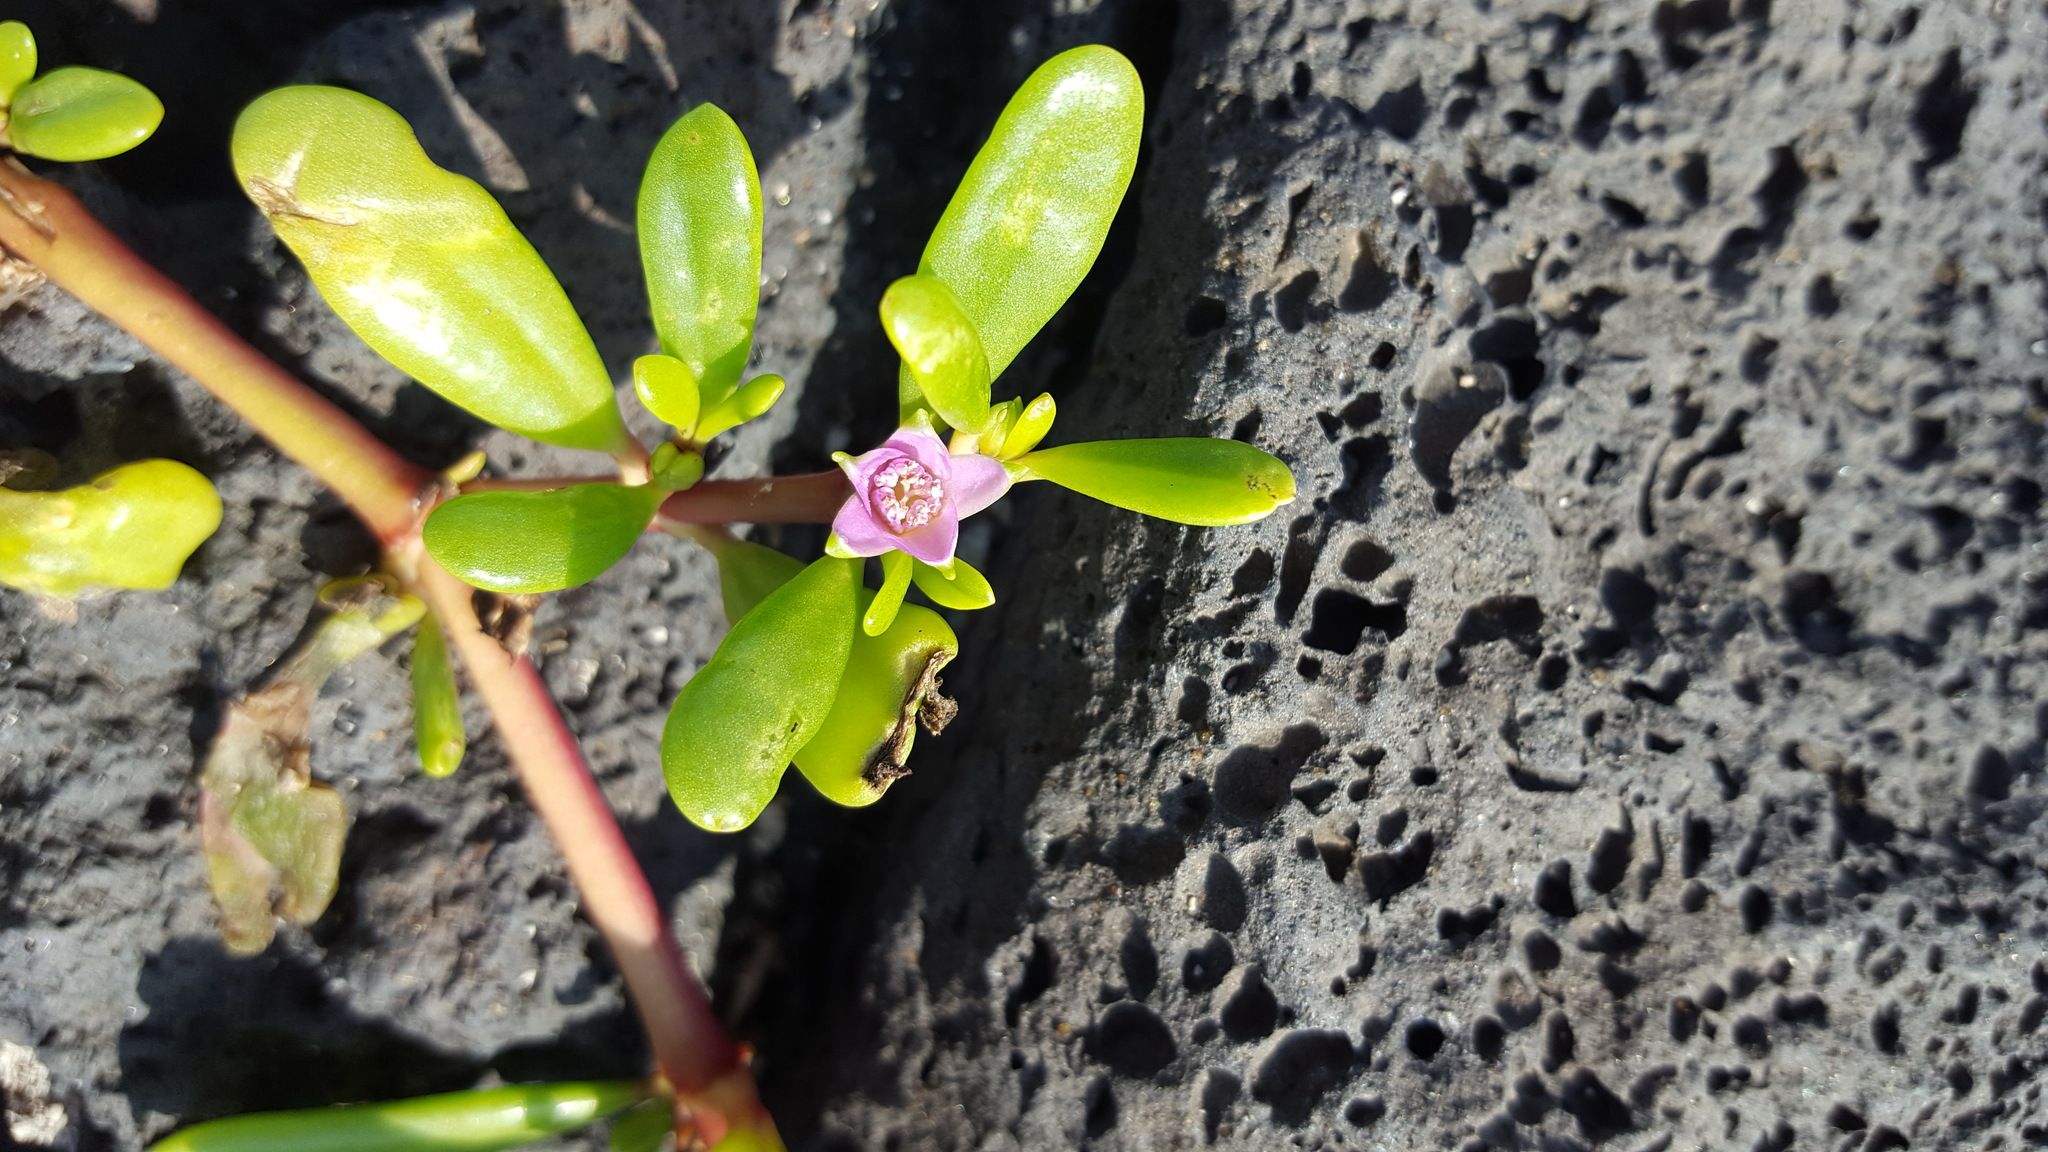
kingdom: Plantae
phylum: Tracheophyta
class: Magnoliopsida
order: Caryophyllales
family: Aizoaceae
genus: Sesuvium
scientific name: Sesuvium portulacastrum
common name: Sea-purslane
